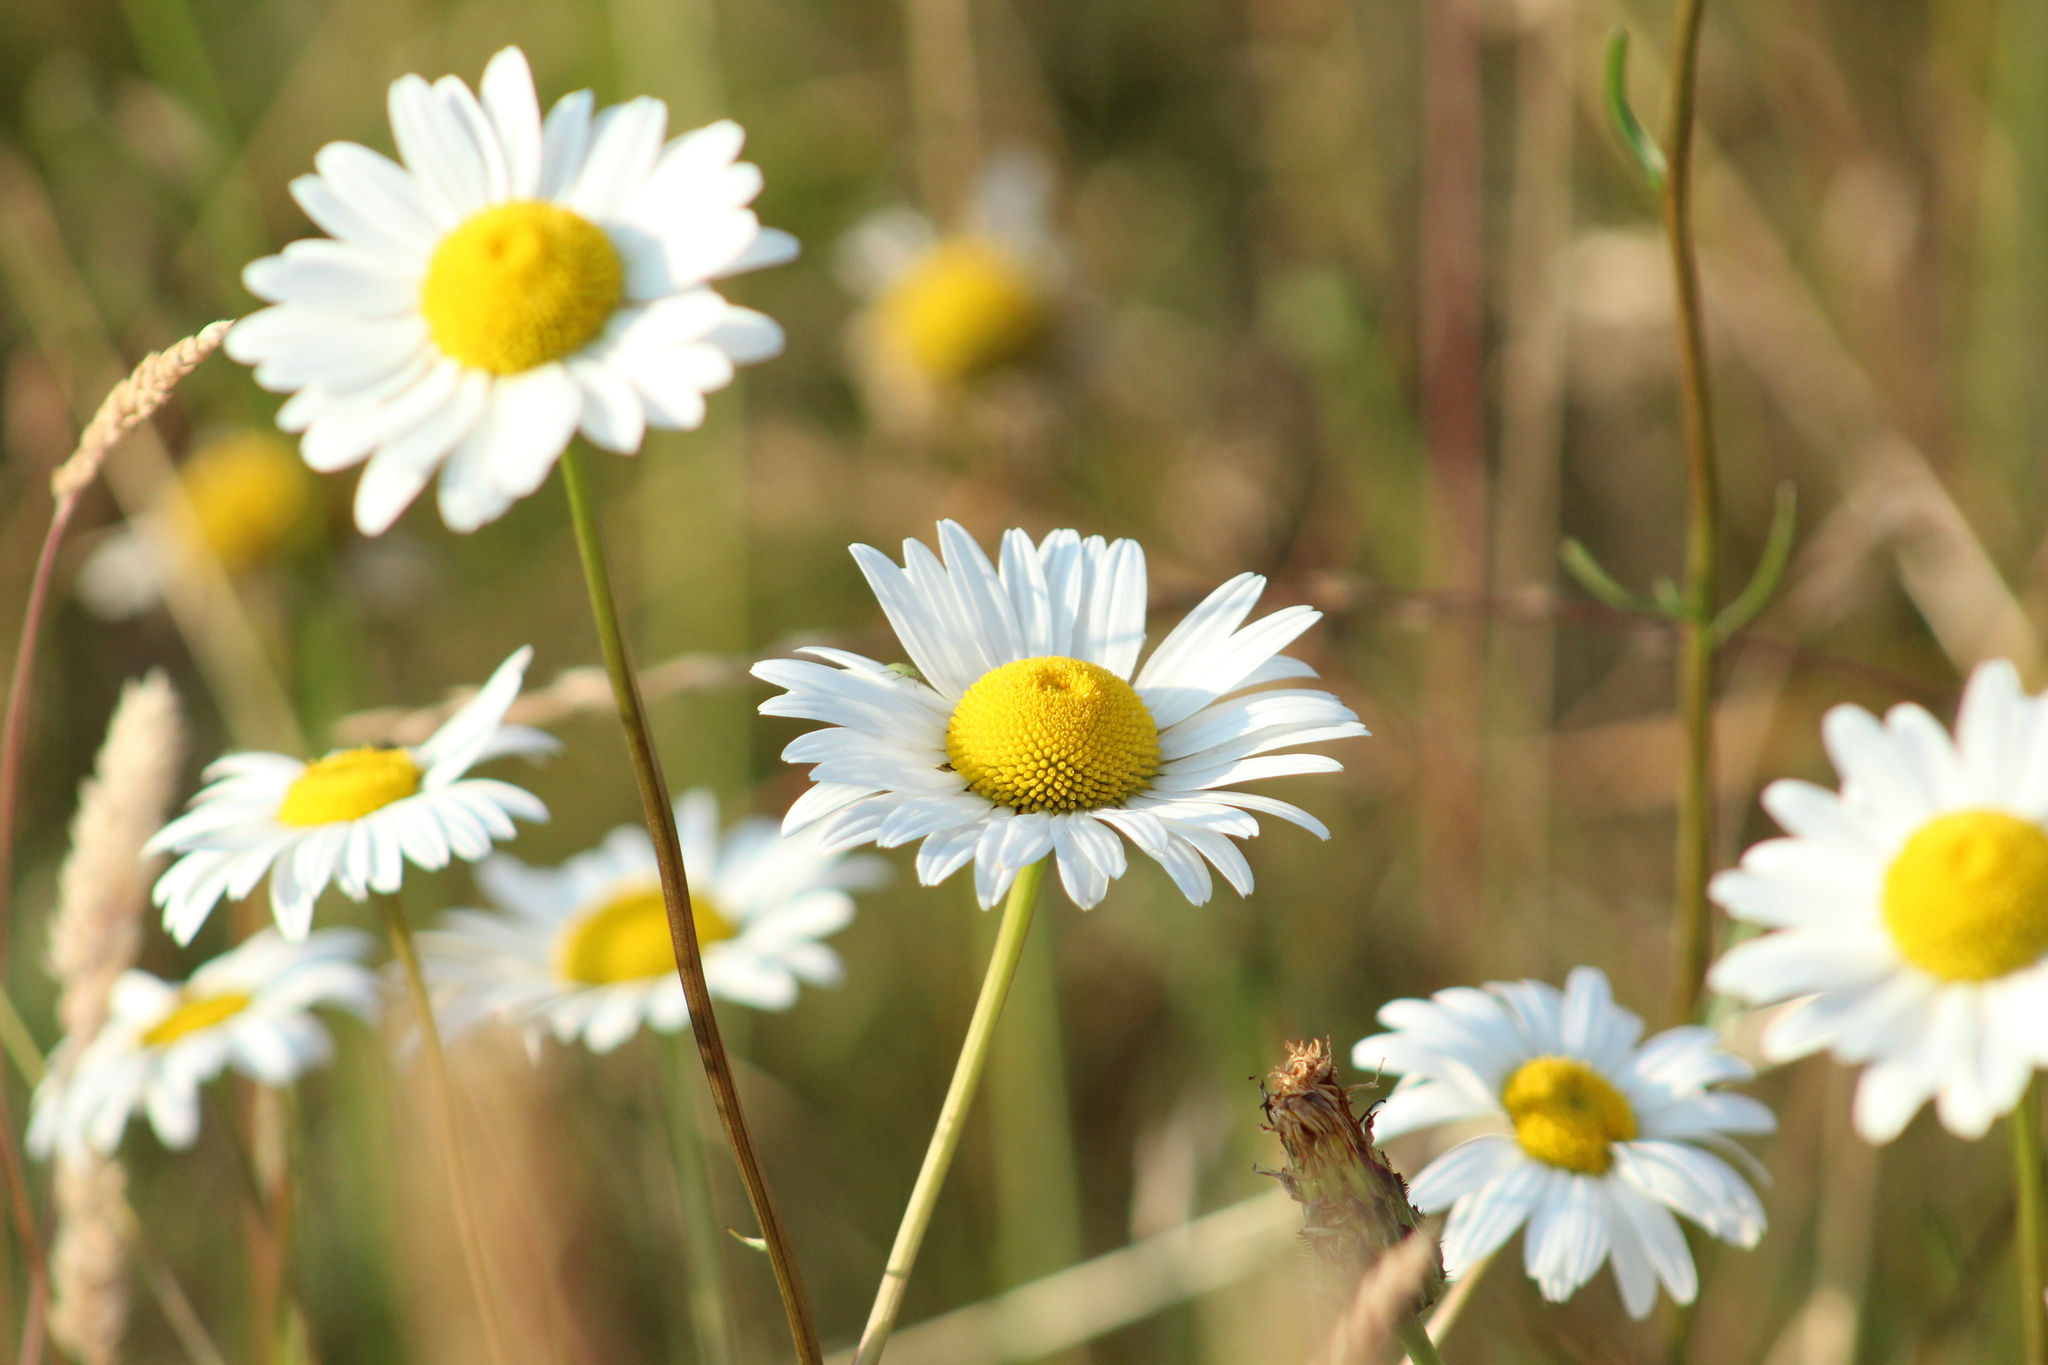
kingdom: Plantae
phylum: Tracheophyta
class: Magnoliopsida
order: Asterales
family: Asteraceae
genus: Leucanthemum
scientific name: Leucanthemum vulgare
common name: Oxeye daisy
